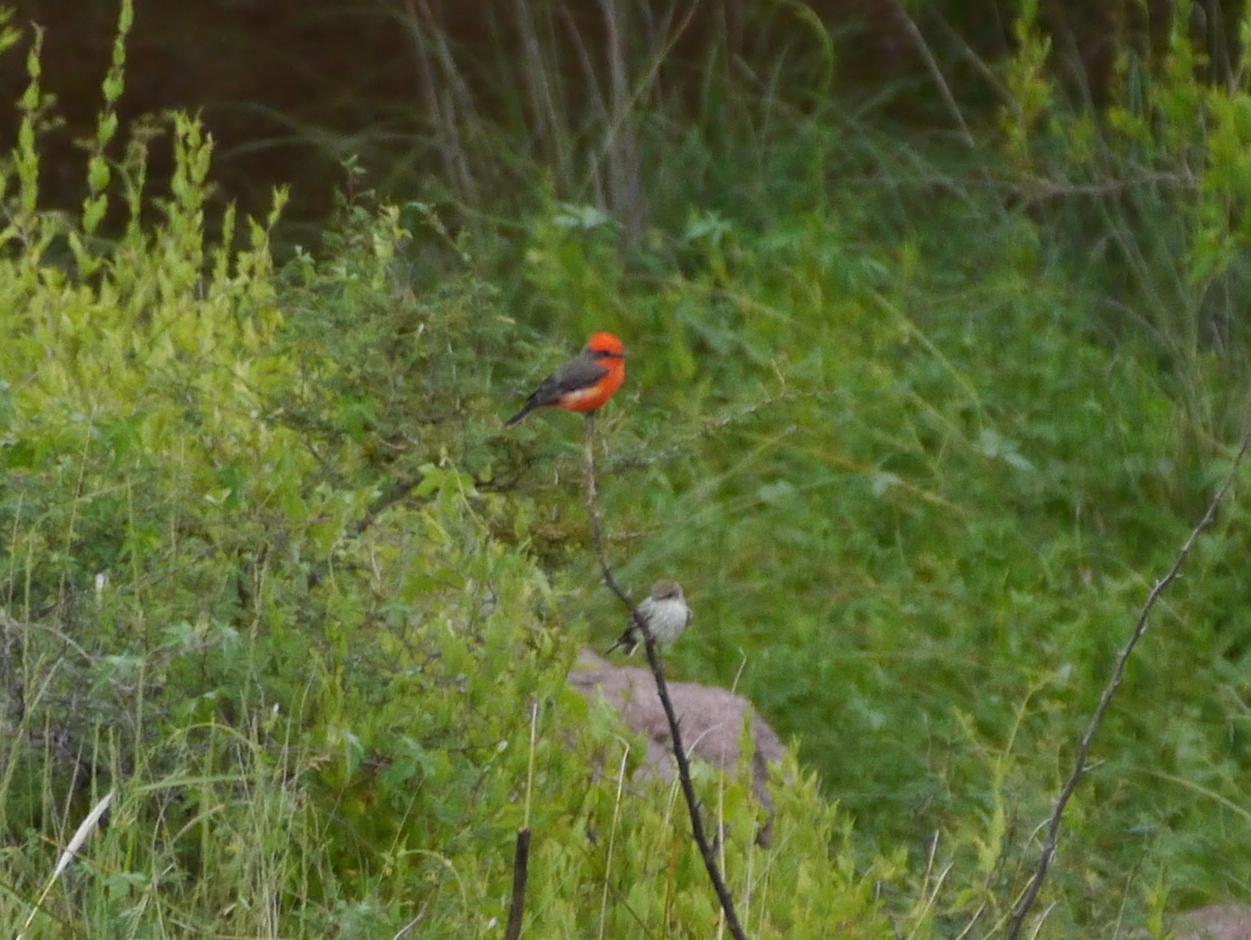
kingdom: Animalia
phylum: Chordata
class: Aves
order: Passeriformes
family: Tyrannidae
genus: Pyrocephalus
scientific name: Pyrocephalus rubinus
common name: Vermilion flycatcher
